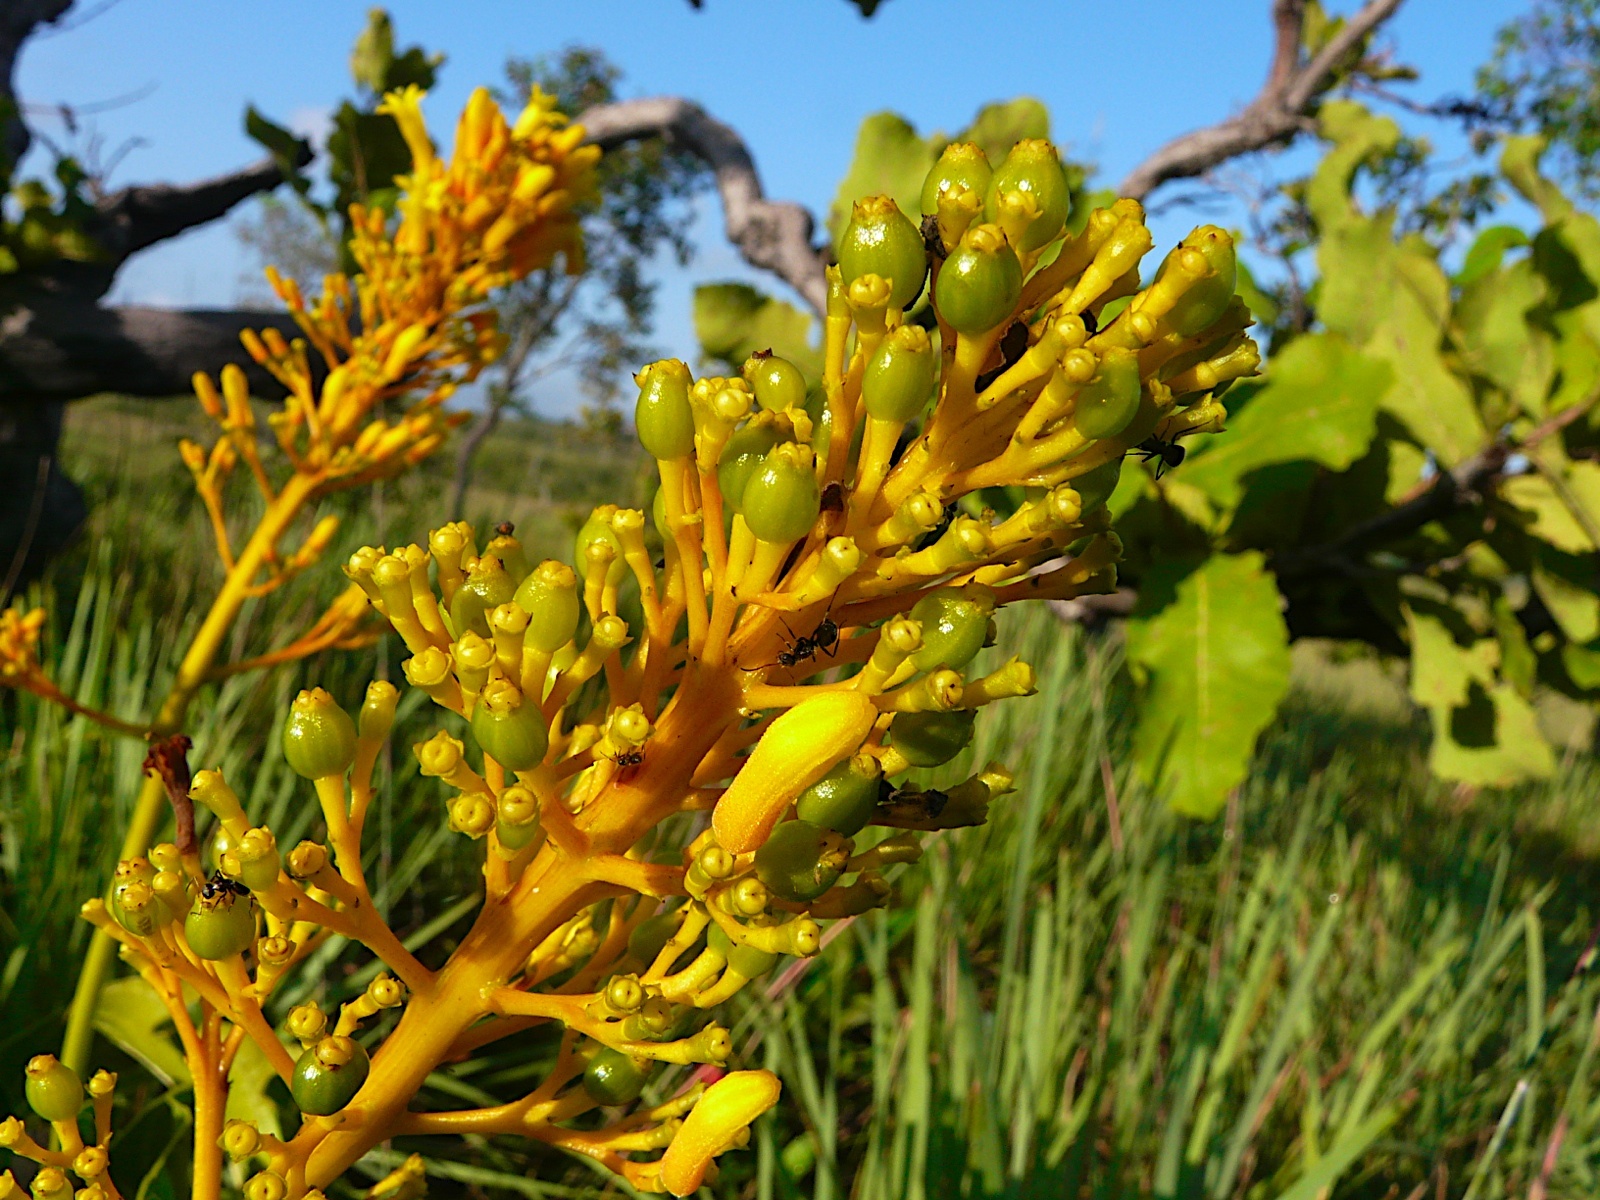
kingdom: Plantae
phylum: Tracheophyta
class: Magnoliopsida
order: Gentianales
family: Rubiaceae
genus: Palicourea
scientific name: Palicourea rigida
